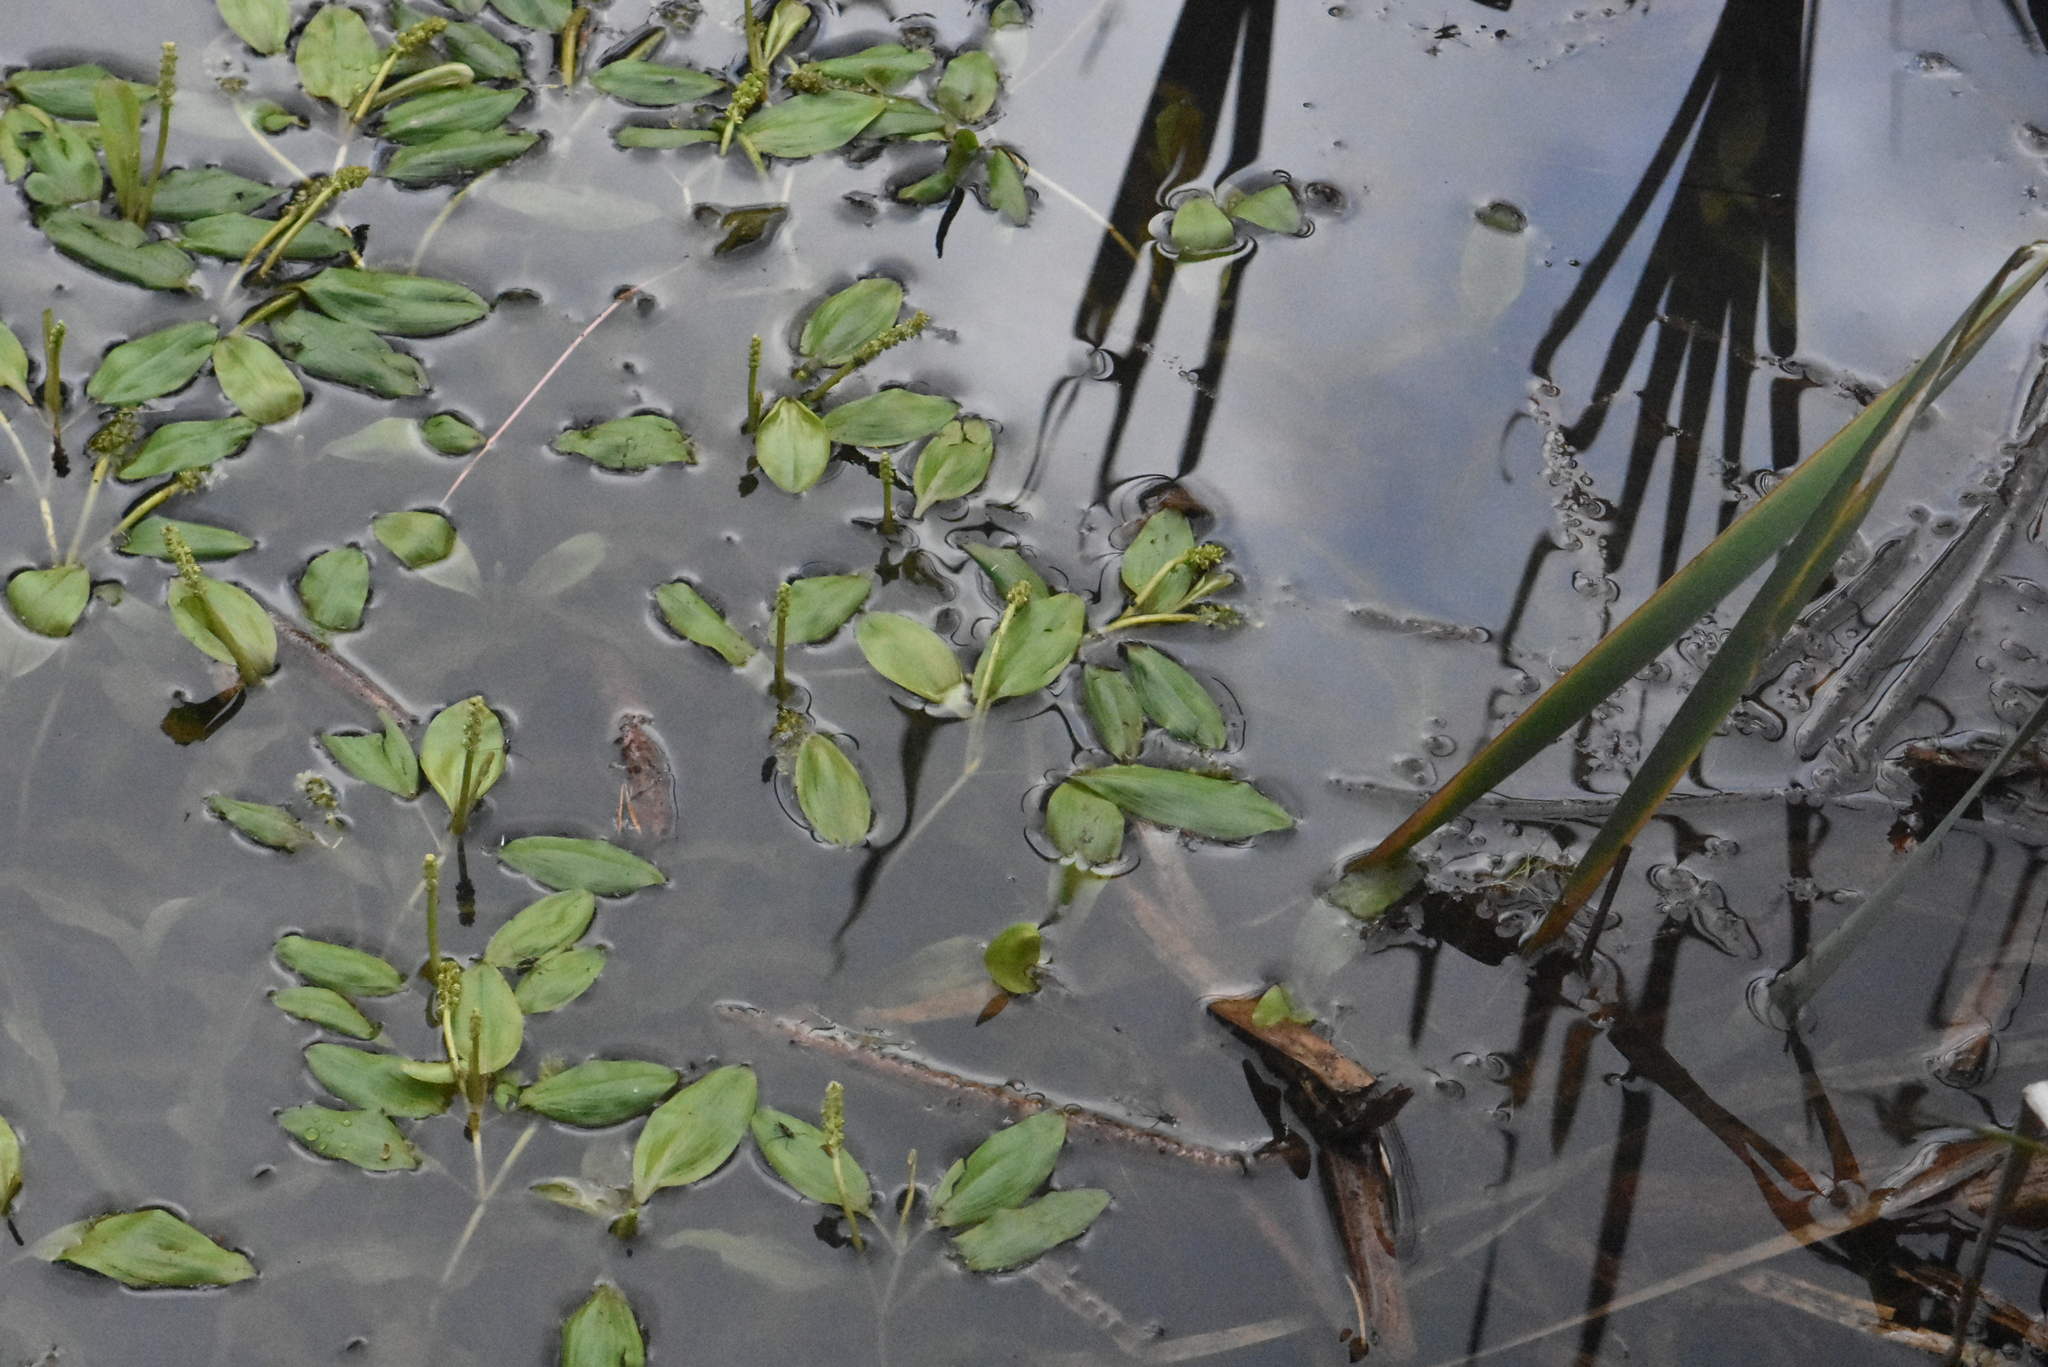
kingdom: Plantae
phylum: Tracheophyta
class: Liliopsida
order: Alismatales
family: Potamogetonaceae
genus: Potamogeton
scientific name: Potamogeton gramineus
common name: Various-leaved pondweed
